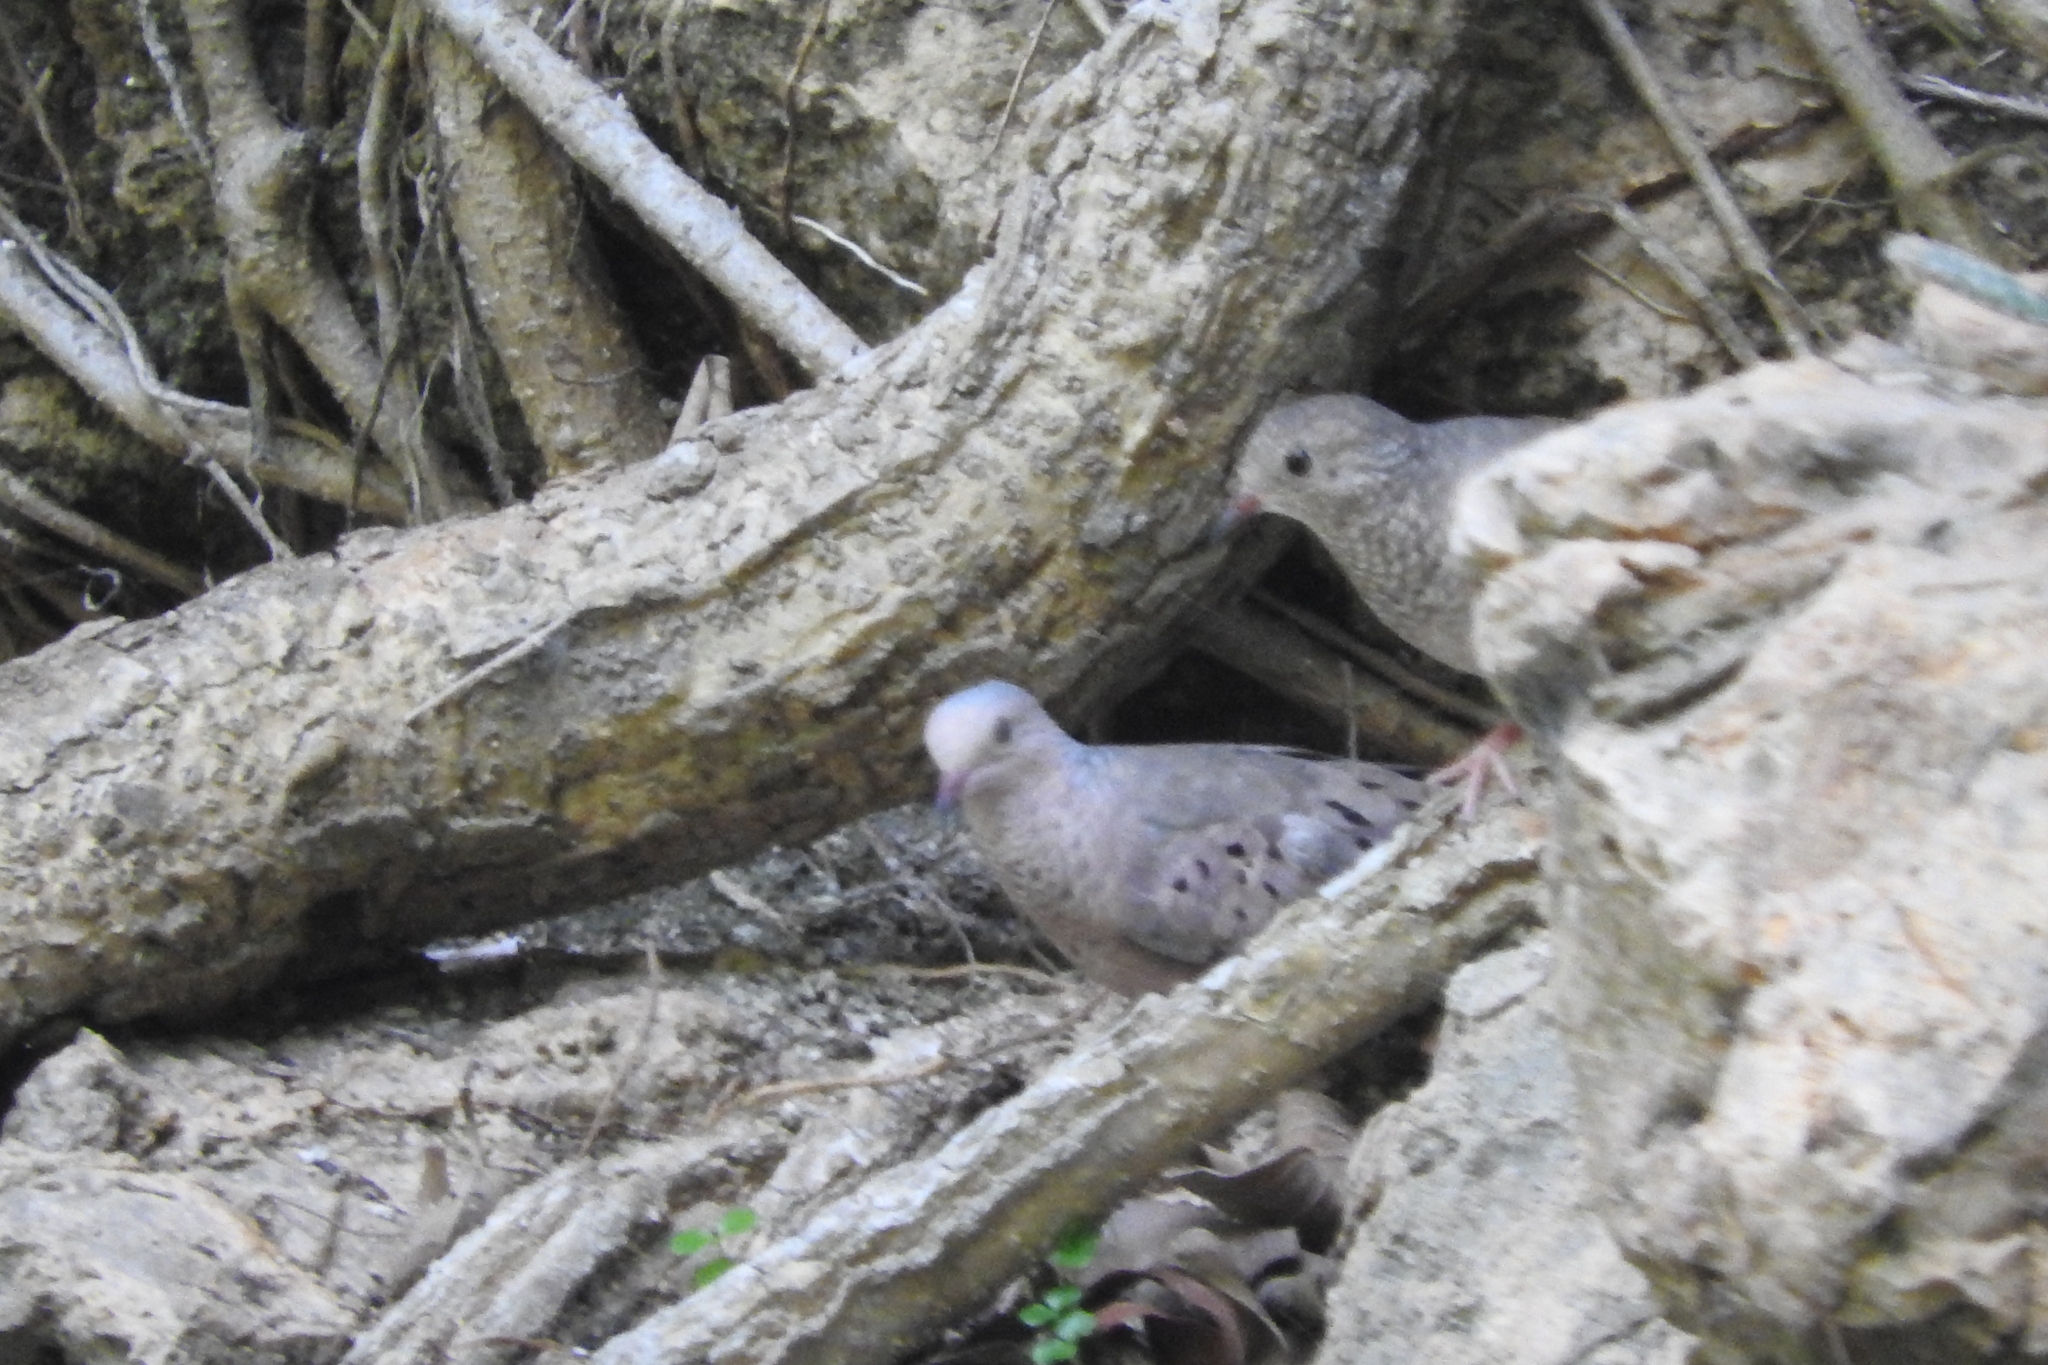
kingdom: Animalia
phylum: Chordata
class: Aves
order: Columbiformes
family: Columbidae
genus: Columbina
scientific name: Columbina passerina
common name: Common ground-dove
